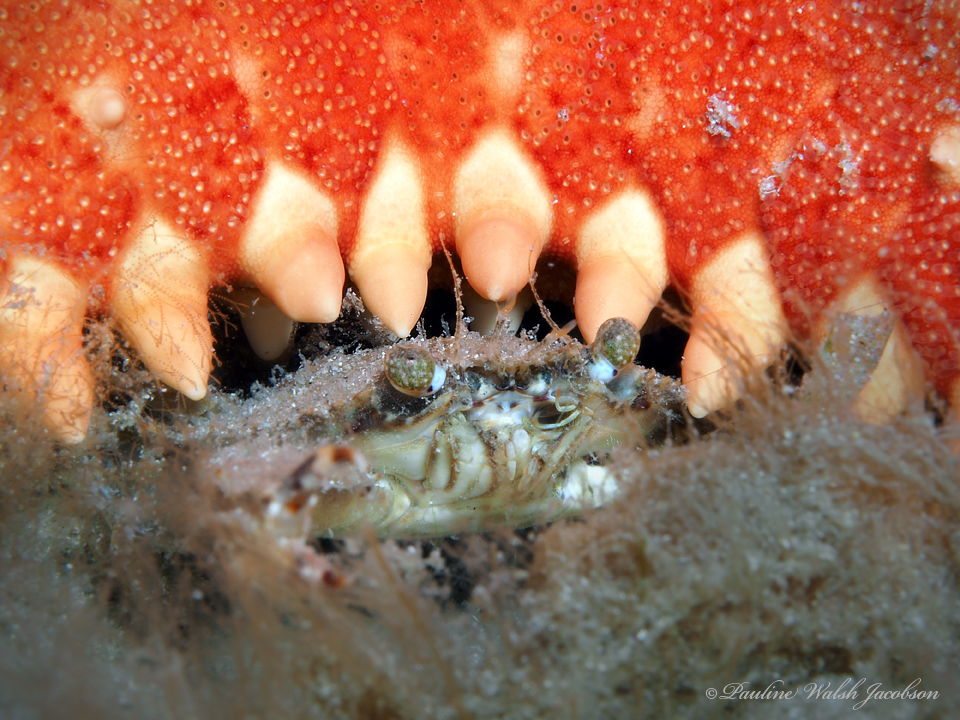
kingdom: Animalia
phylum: Echinodermata
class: Asteroidea
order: Valvatida
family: Oreasteridae
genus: Oreaster
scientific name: Oreaster reticulatus
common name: Cushion sea star
